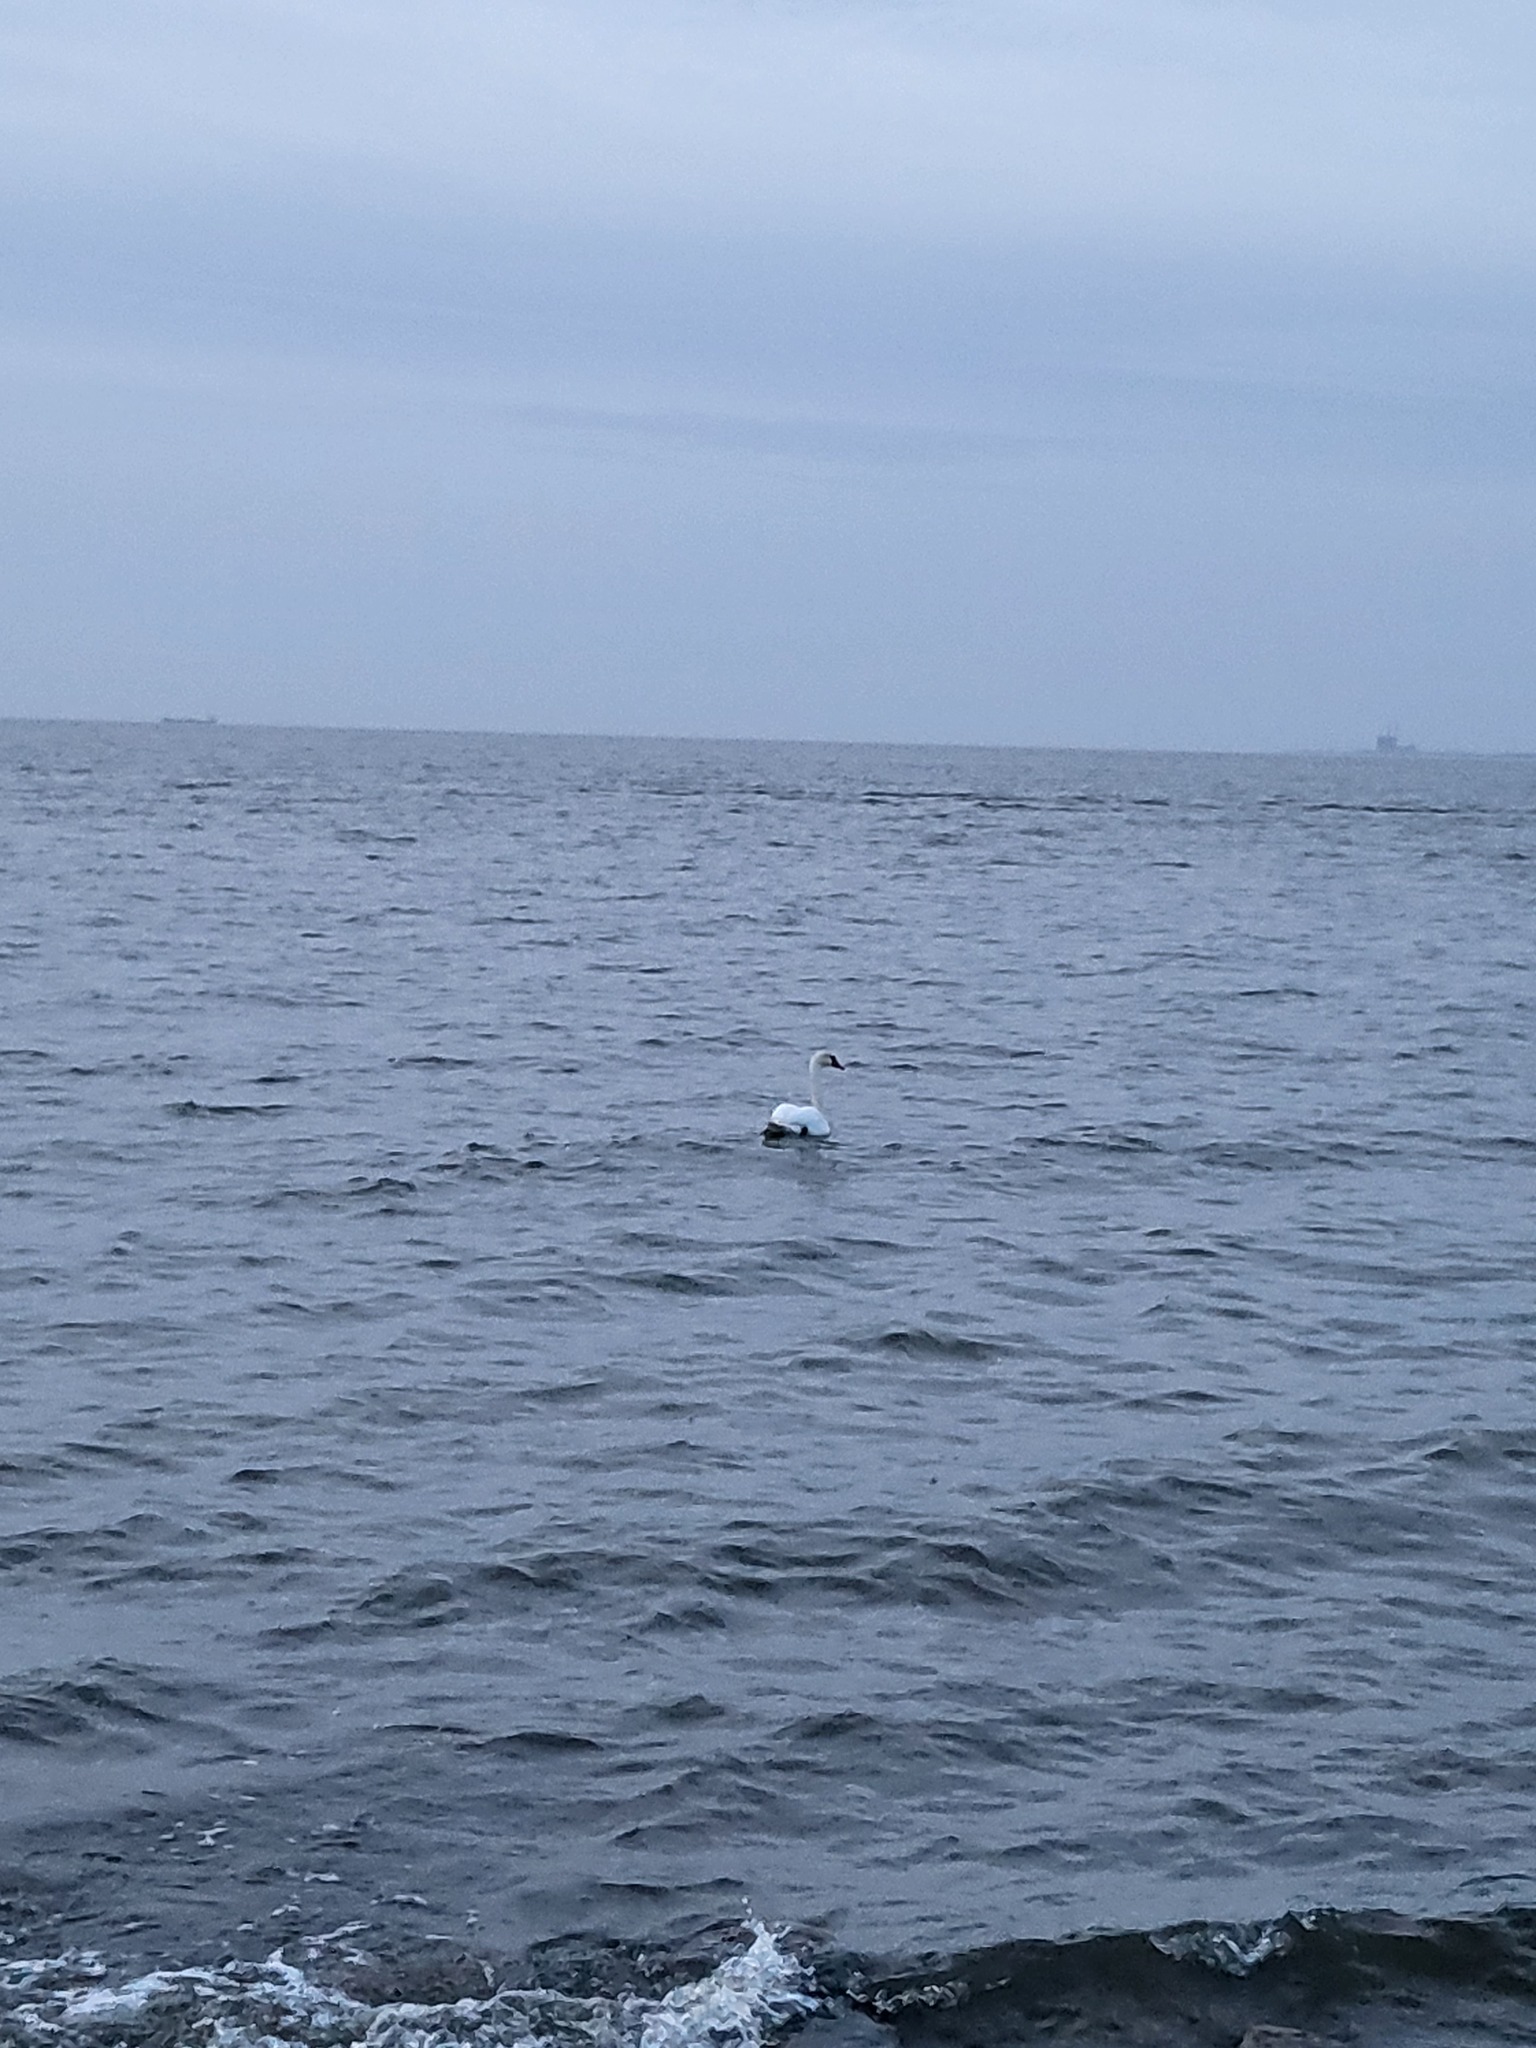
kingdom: Animalia
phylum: Chordata
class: Aves
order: Anseriformes
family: Anatidae
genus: Cygnus
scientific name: Cygnus olor
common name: Mute swan
